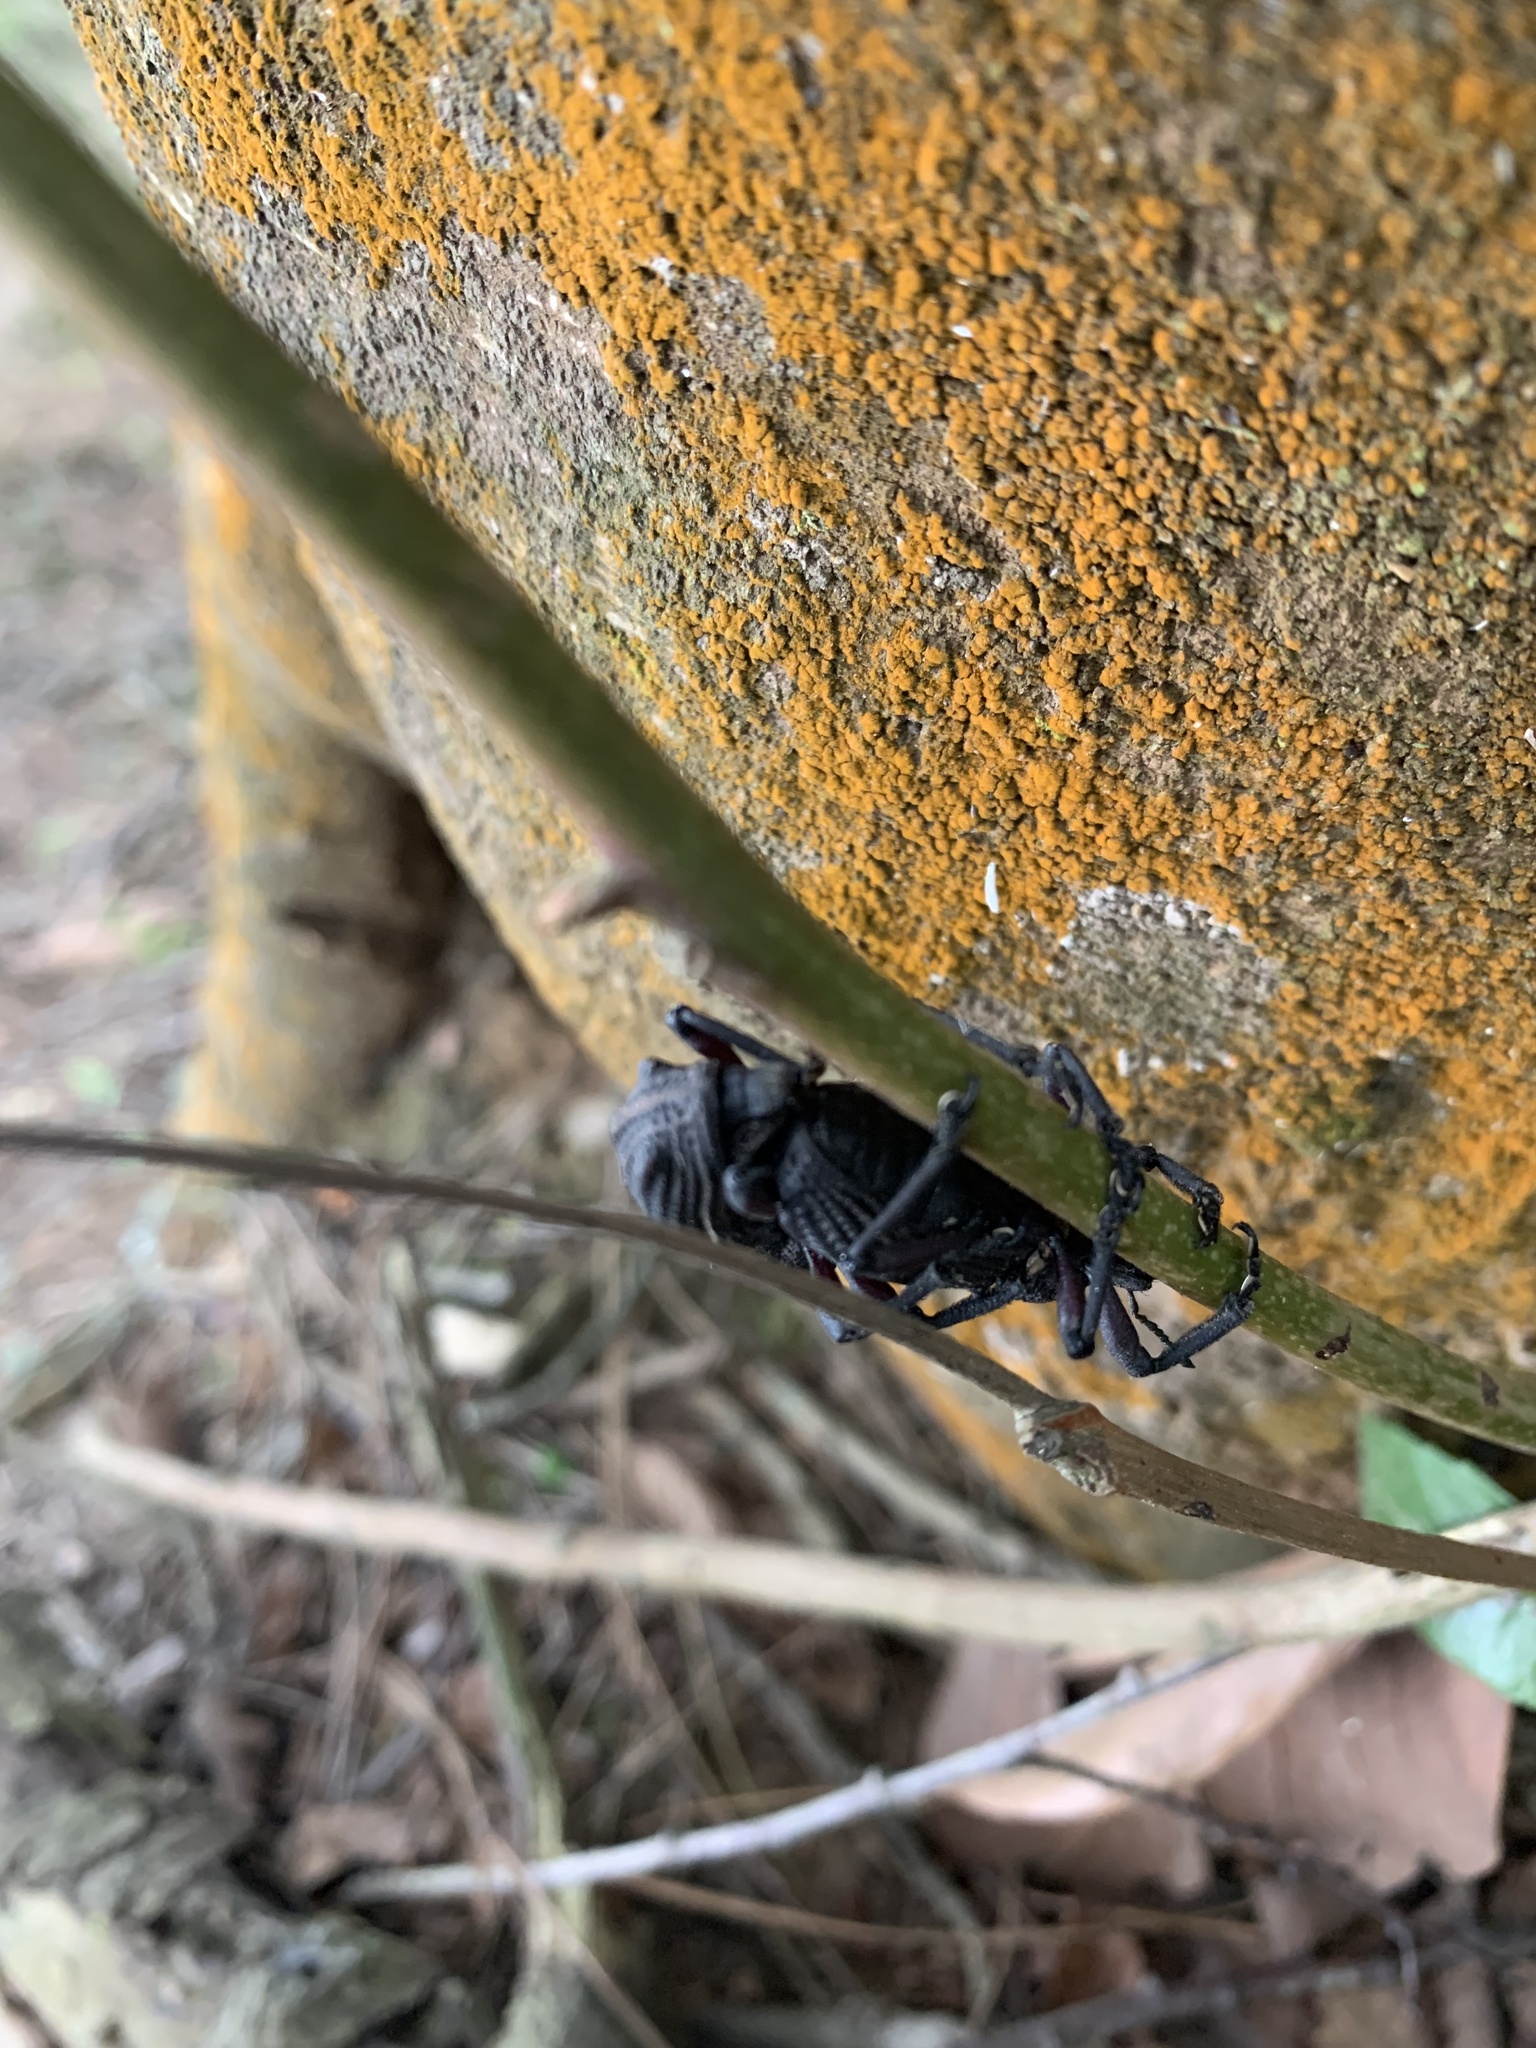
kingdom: Animalia
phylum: Arthropoda
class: Insecta
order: Coleoptera
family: Curculionidae
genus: Aegorhinus
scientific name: Aegorhinus
